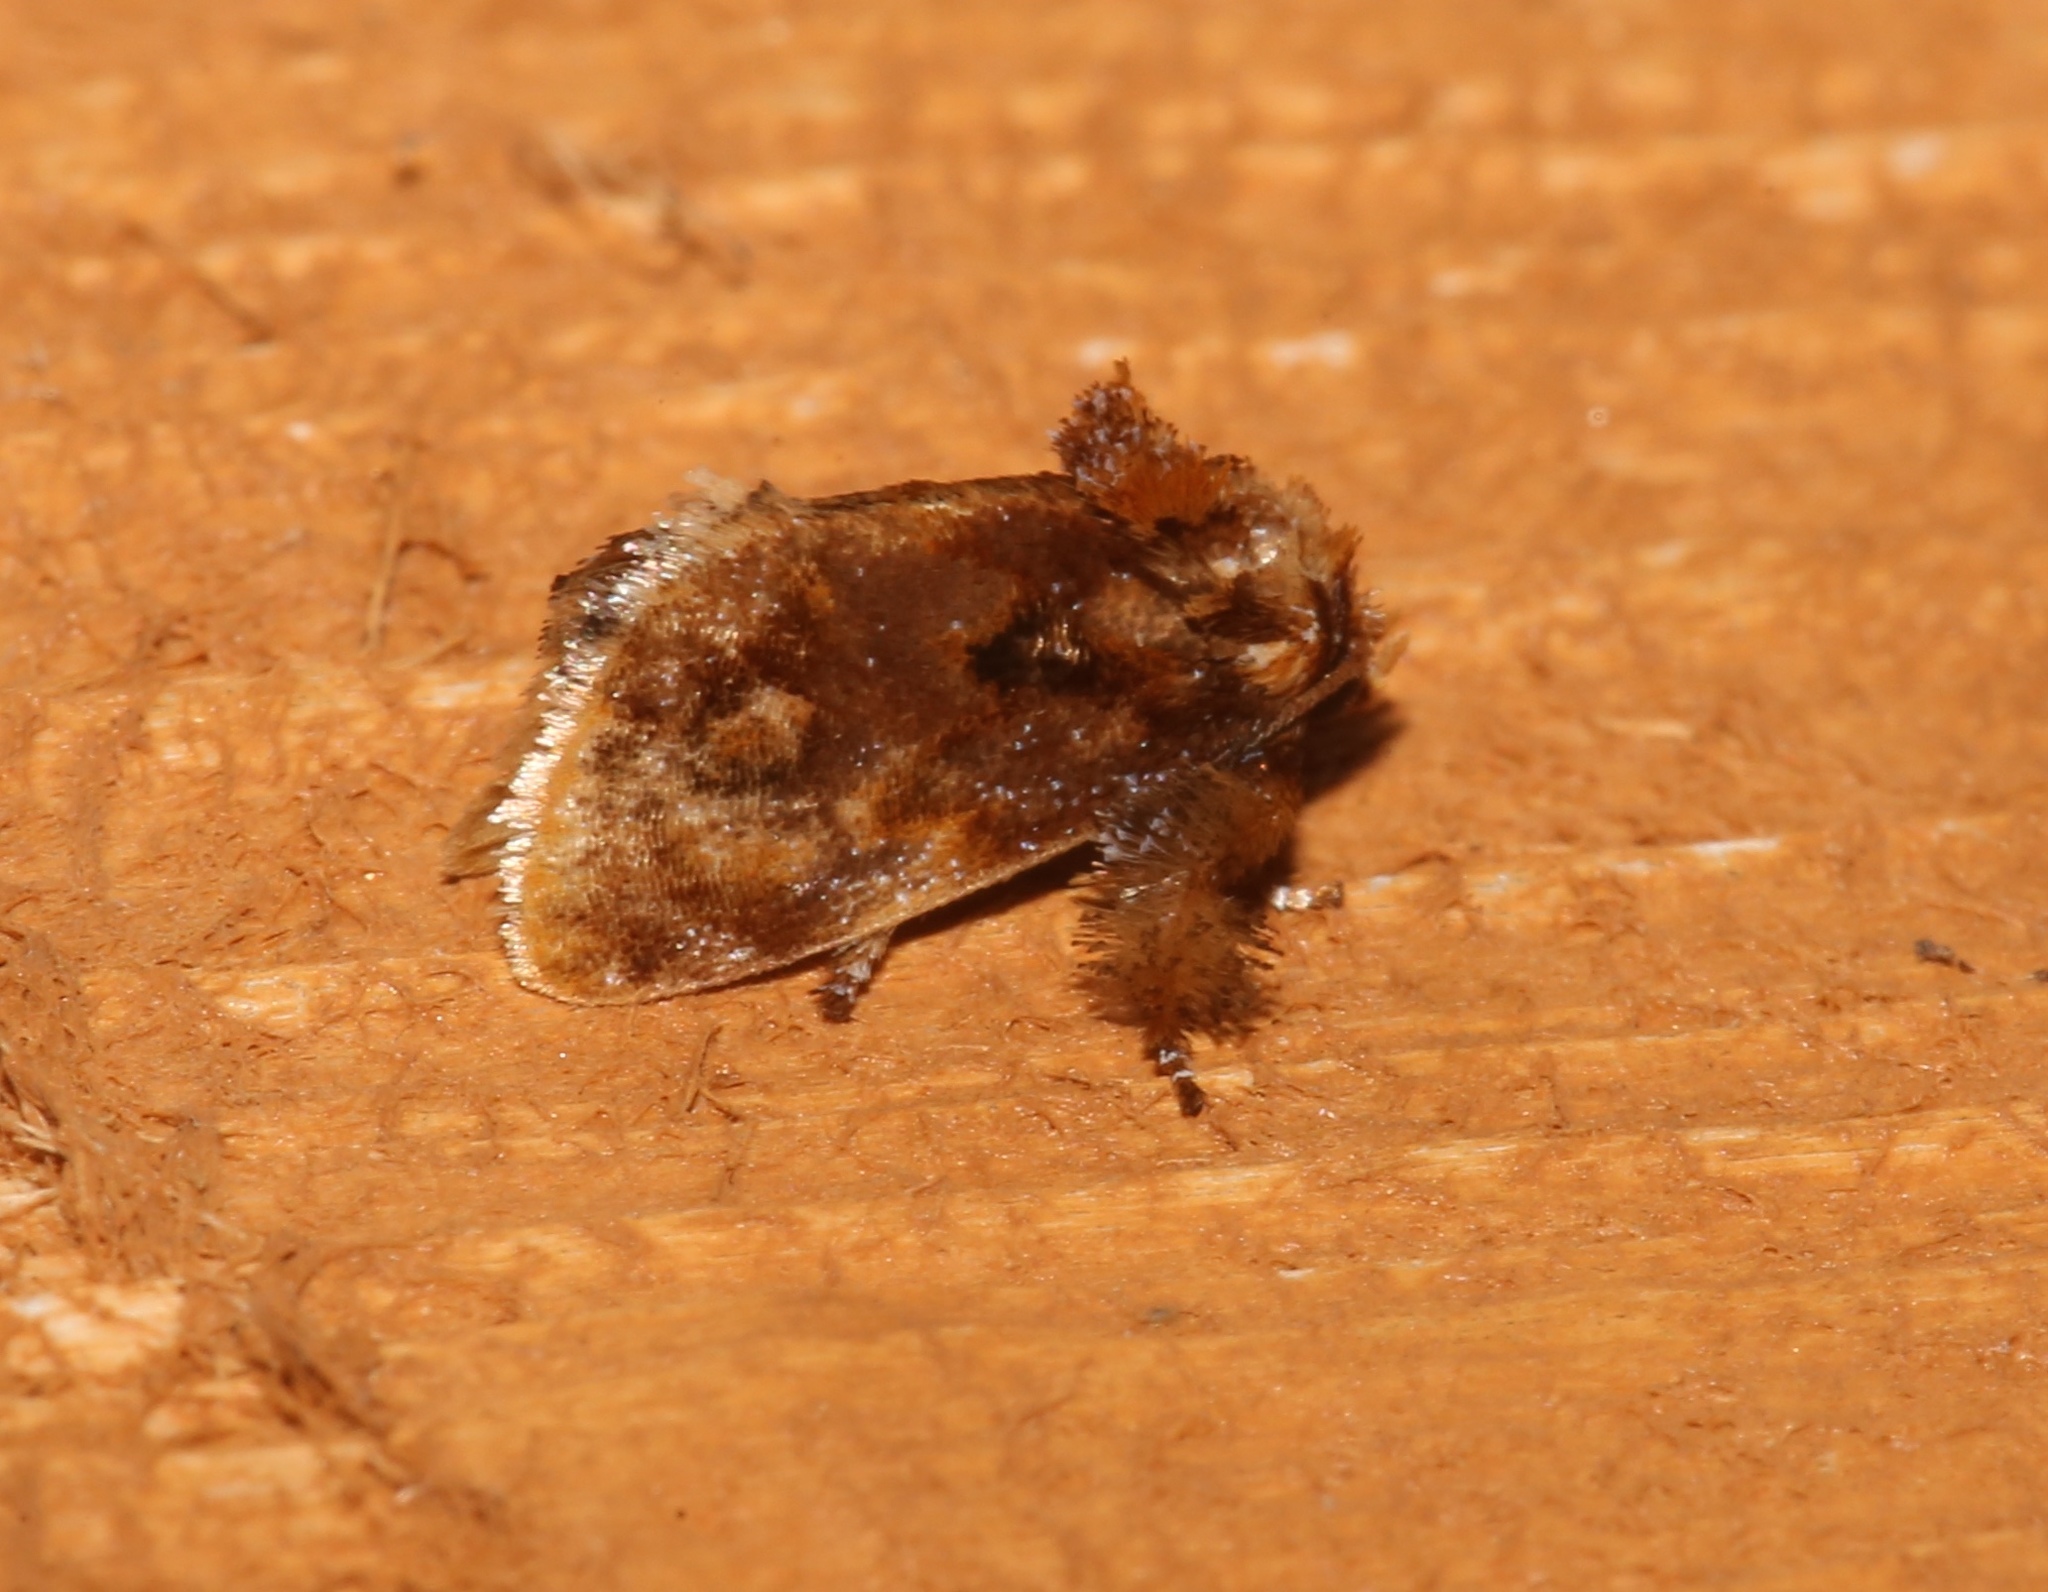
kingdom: Animalia
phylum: Arthropoda
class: Insecta
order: Lepidoptera
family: Limacodidae
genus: Isochaetes
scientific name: Isochaetes beutenmuelleri
